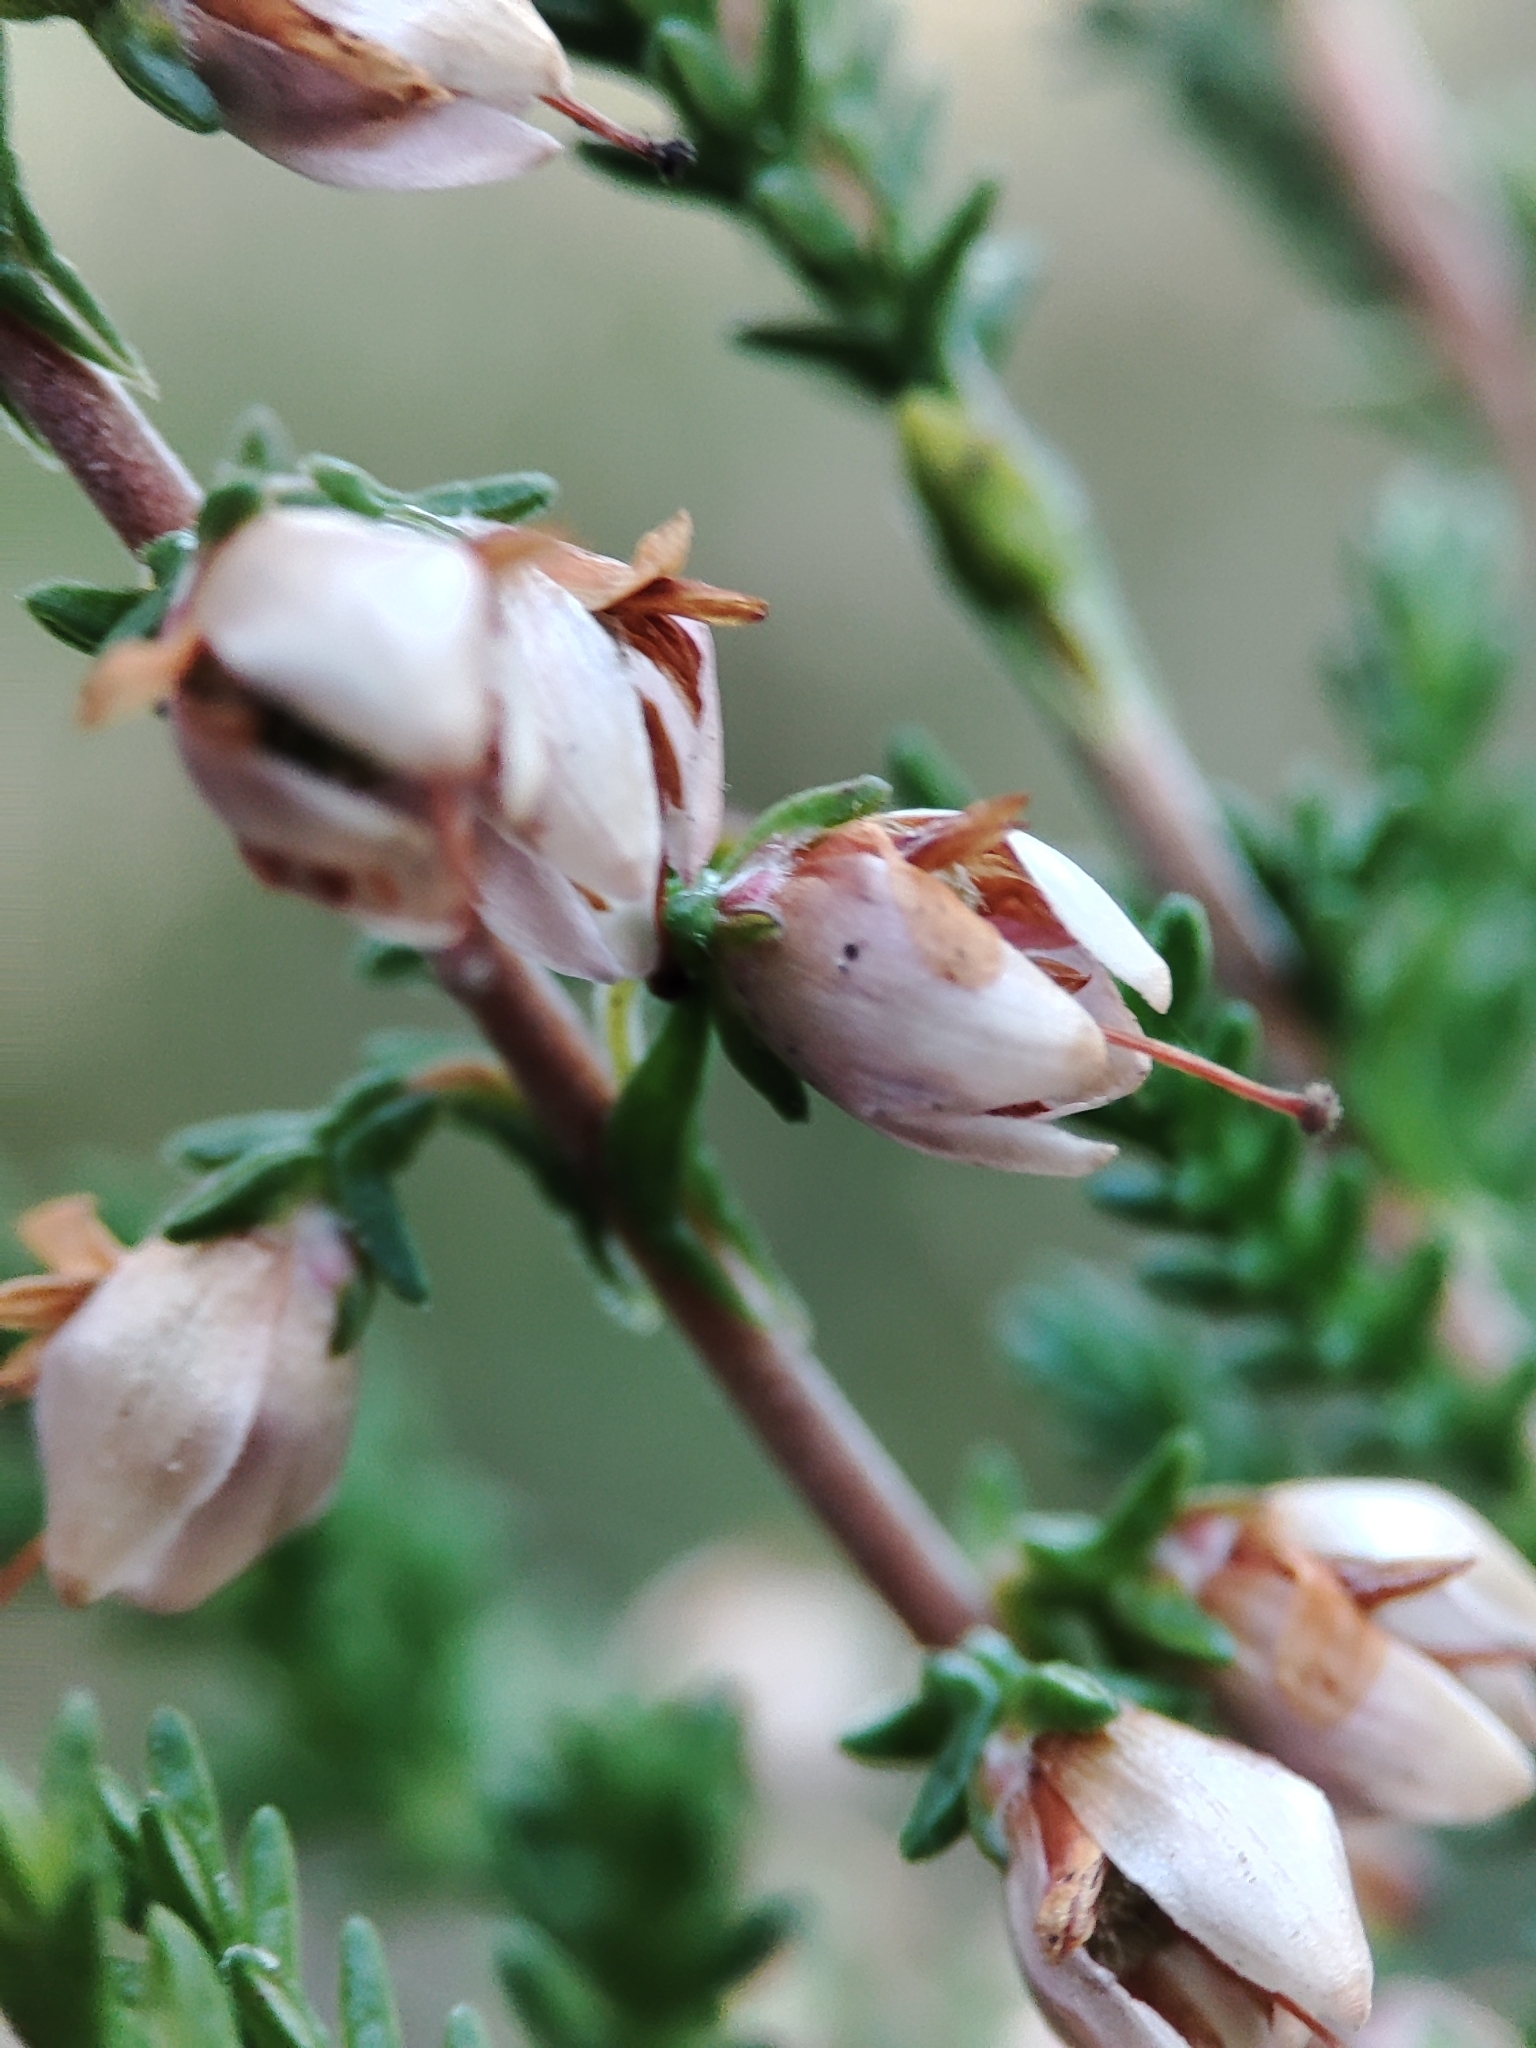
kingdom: Plantae
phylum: Tracheophyta
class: Magnoliopsida
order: Ericales
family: Ericaceae
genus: Calluna
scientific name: Calluna vulgaris
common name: Heather
